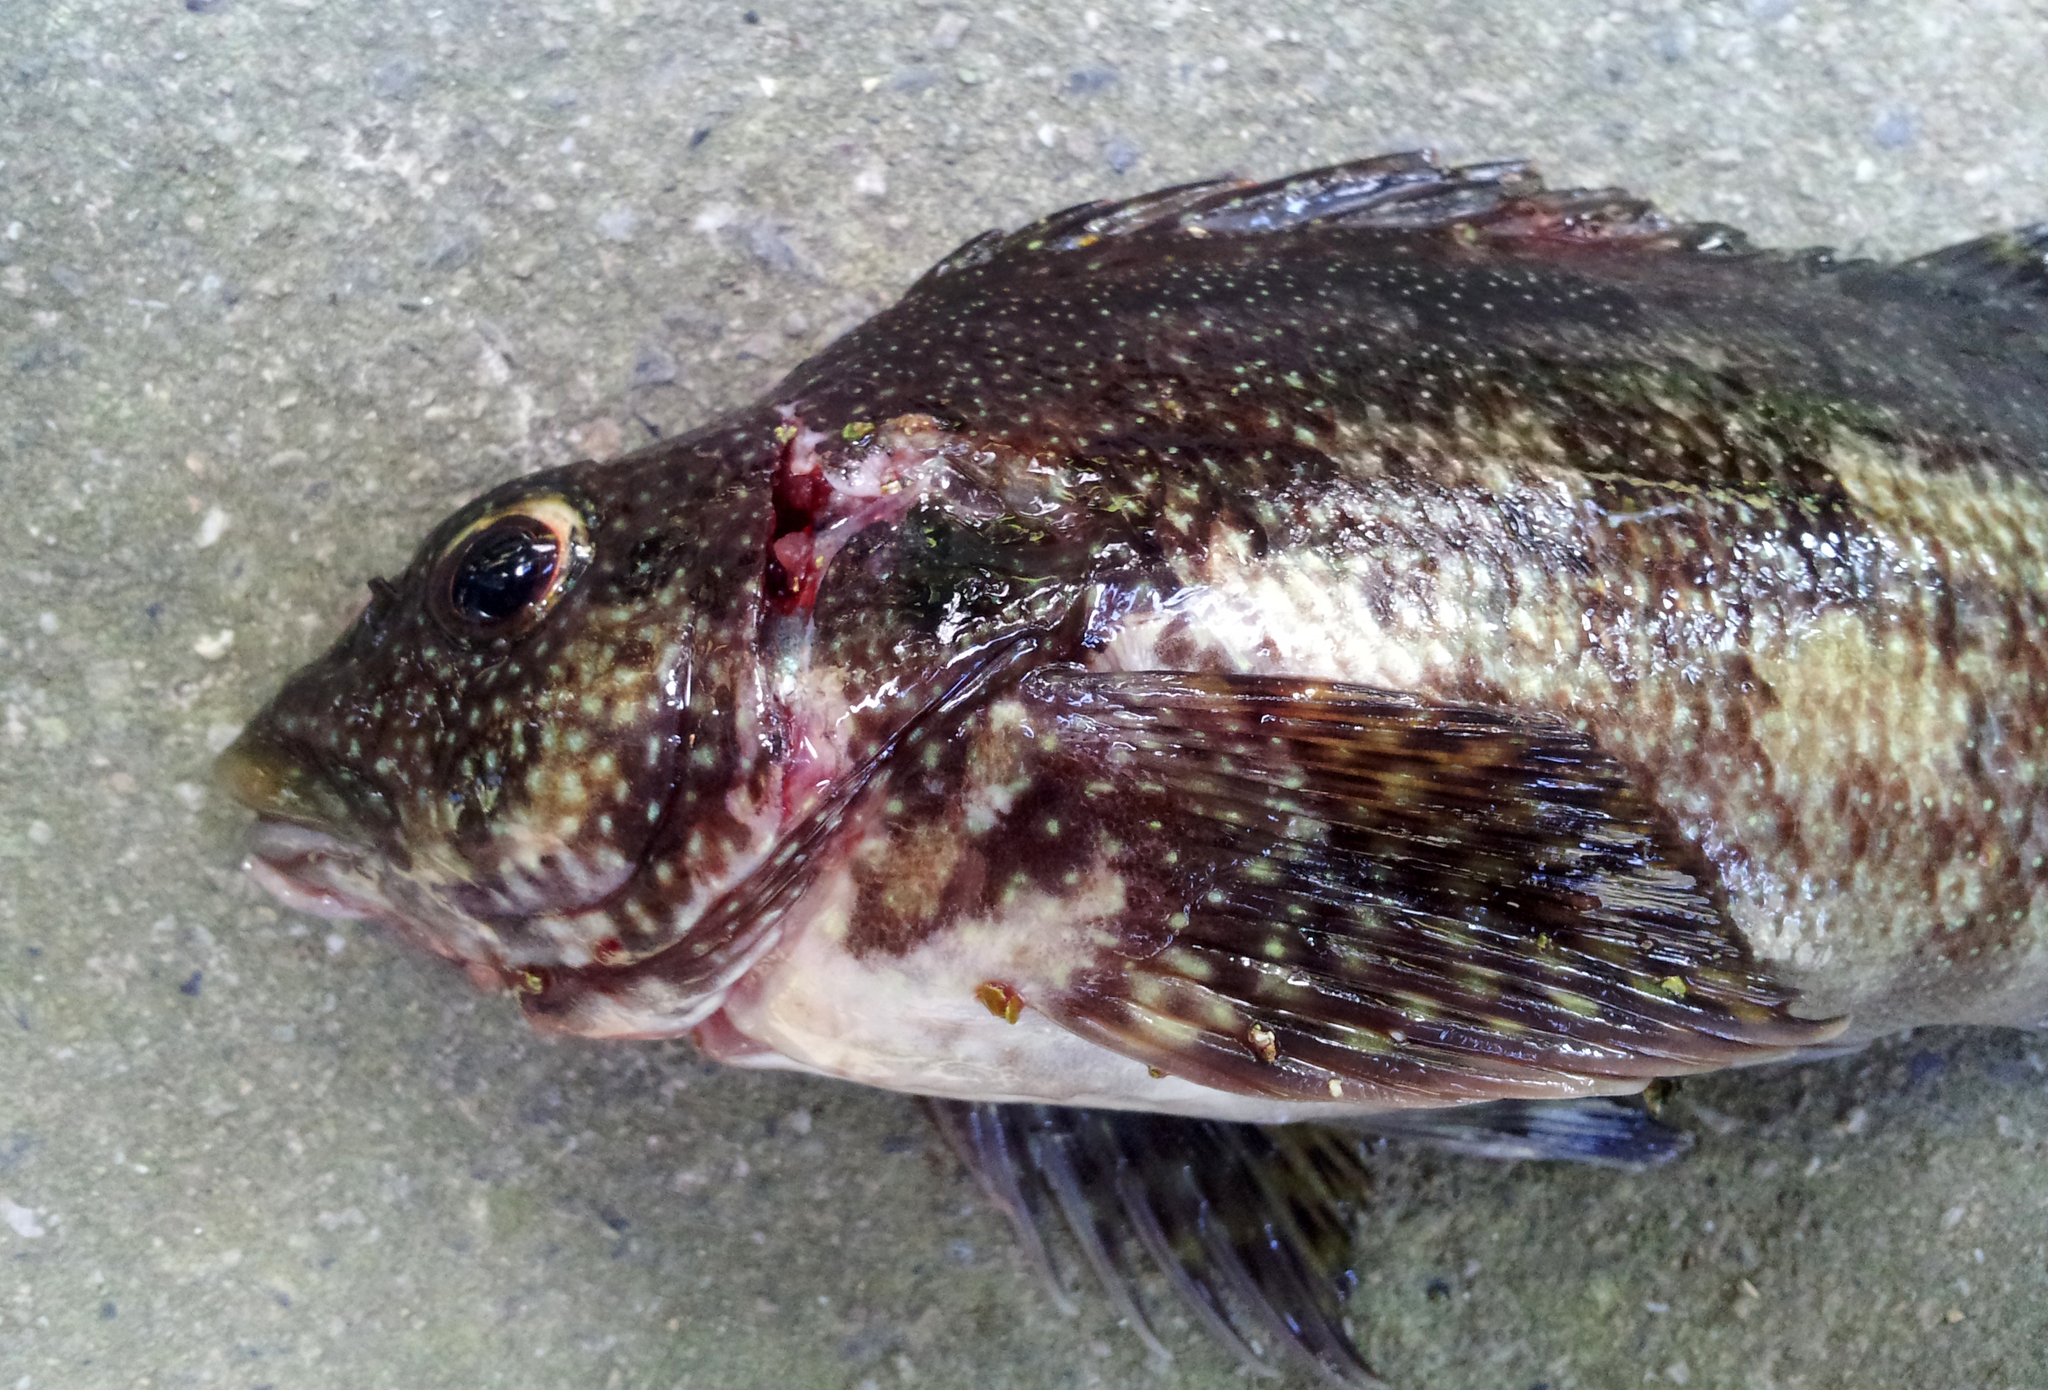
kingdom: Animalia
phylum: Chordata
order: Perciformes
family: Chironemidae
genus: Chironemus
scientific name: Chironemus marmoratus
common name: Kelpfish
